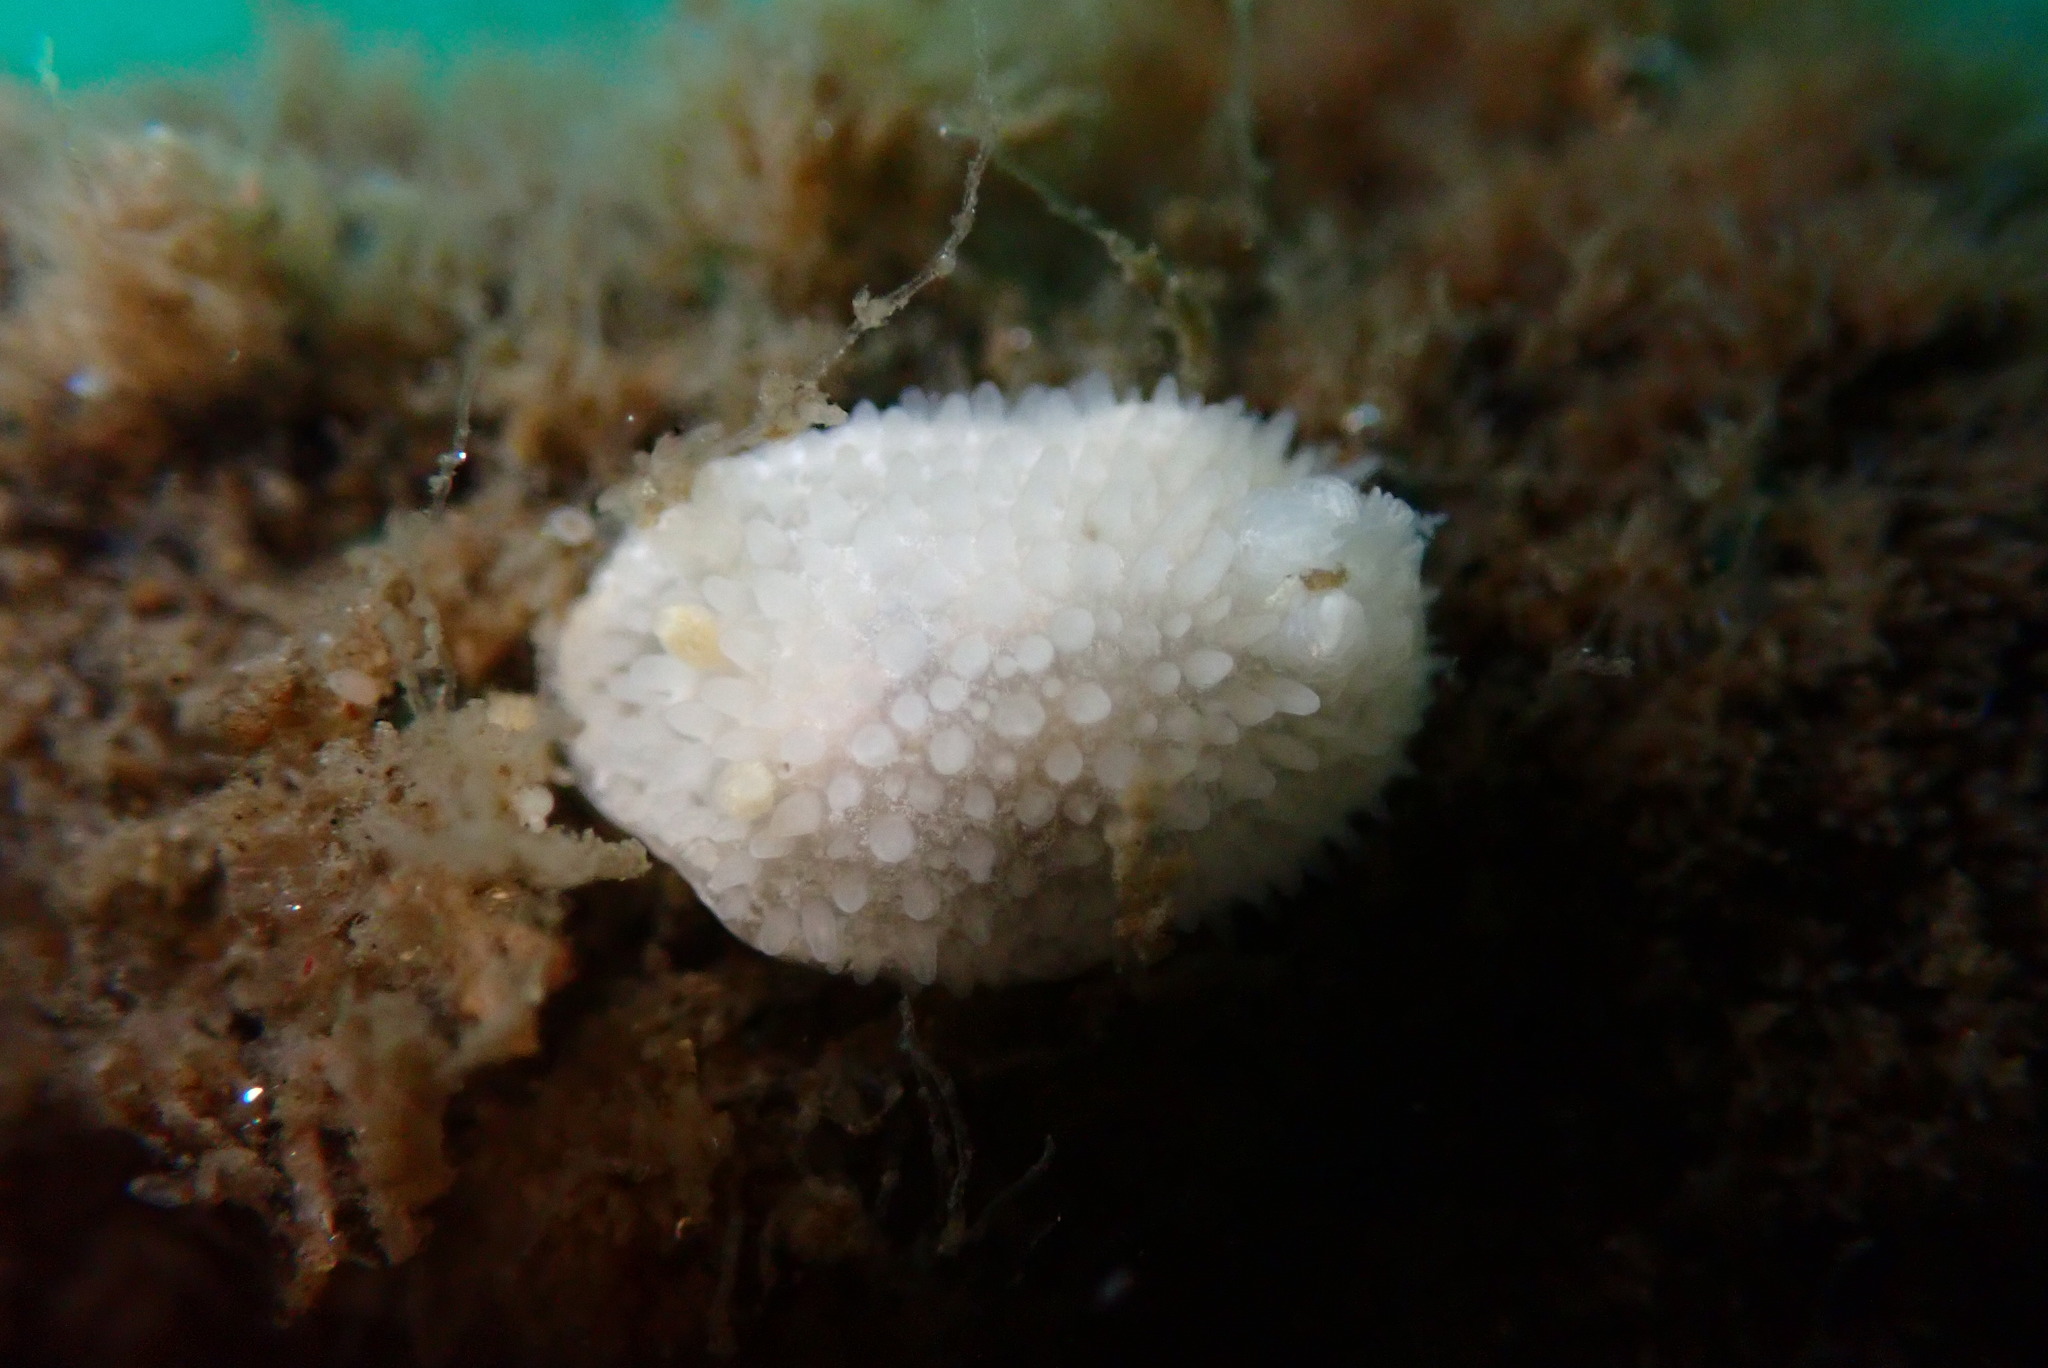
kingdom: Animalia
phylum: Mollusca
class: Gastropoda
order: Nudibranchia
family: Calycidorididae
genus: Diaphorodoris
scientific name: Diaphorodoris lirulatocauda
